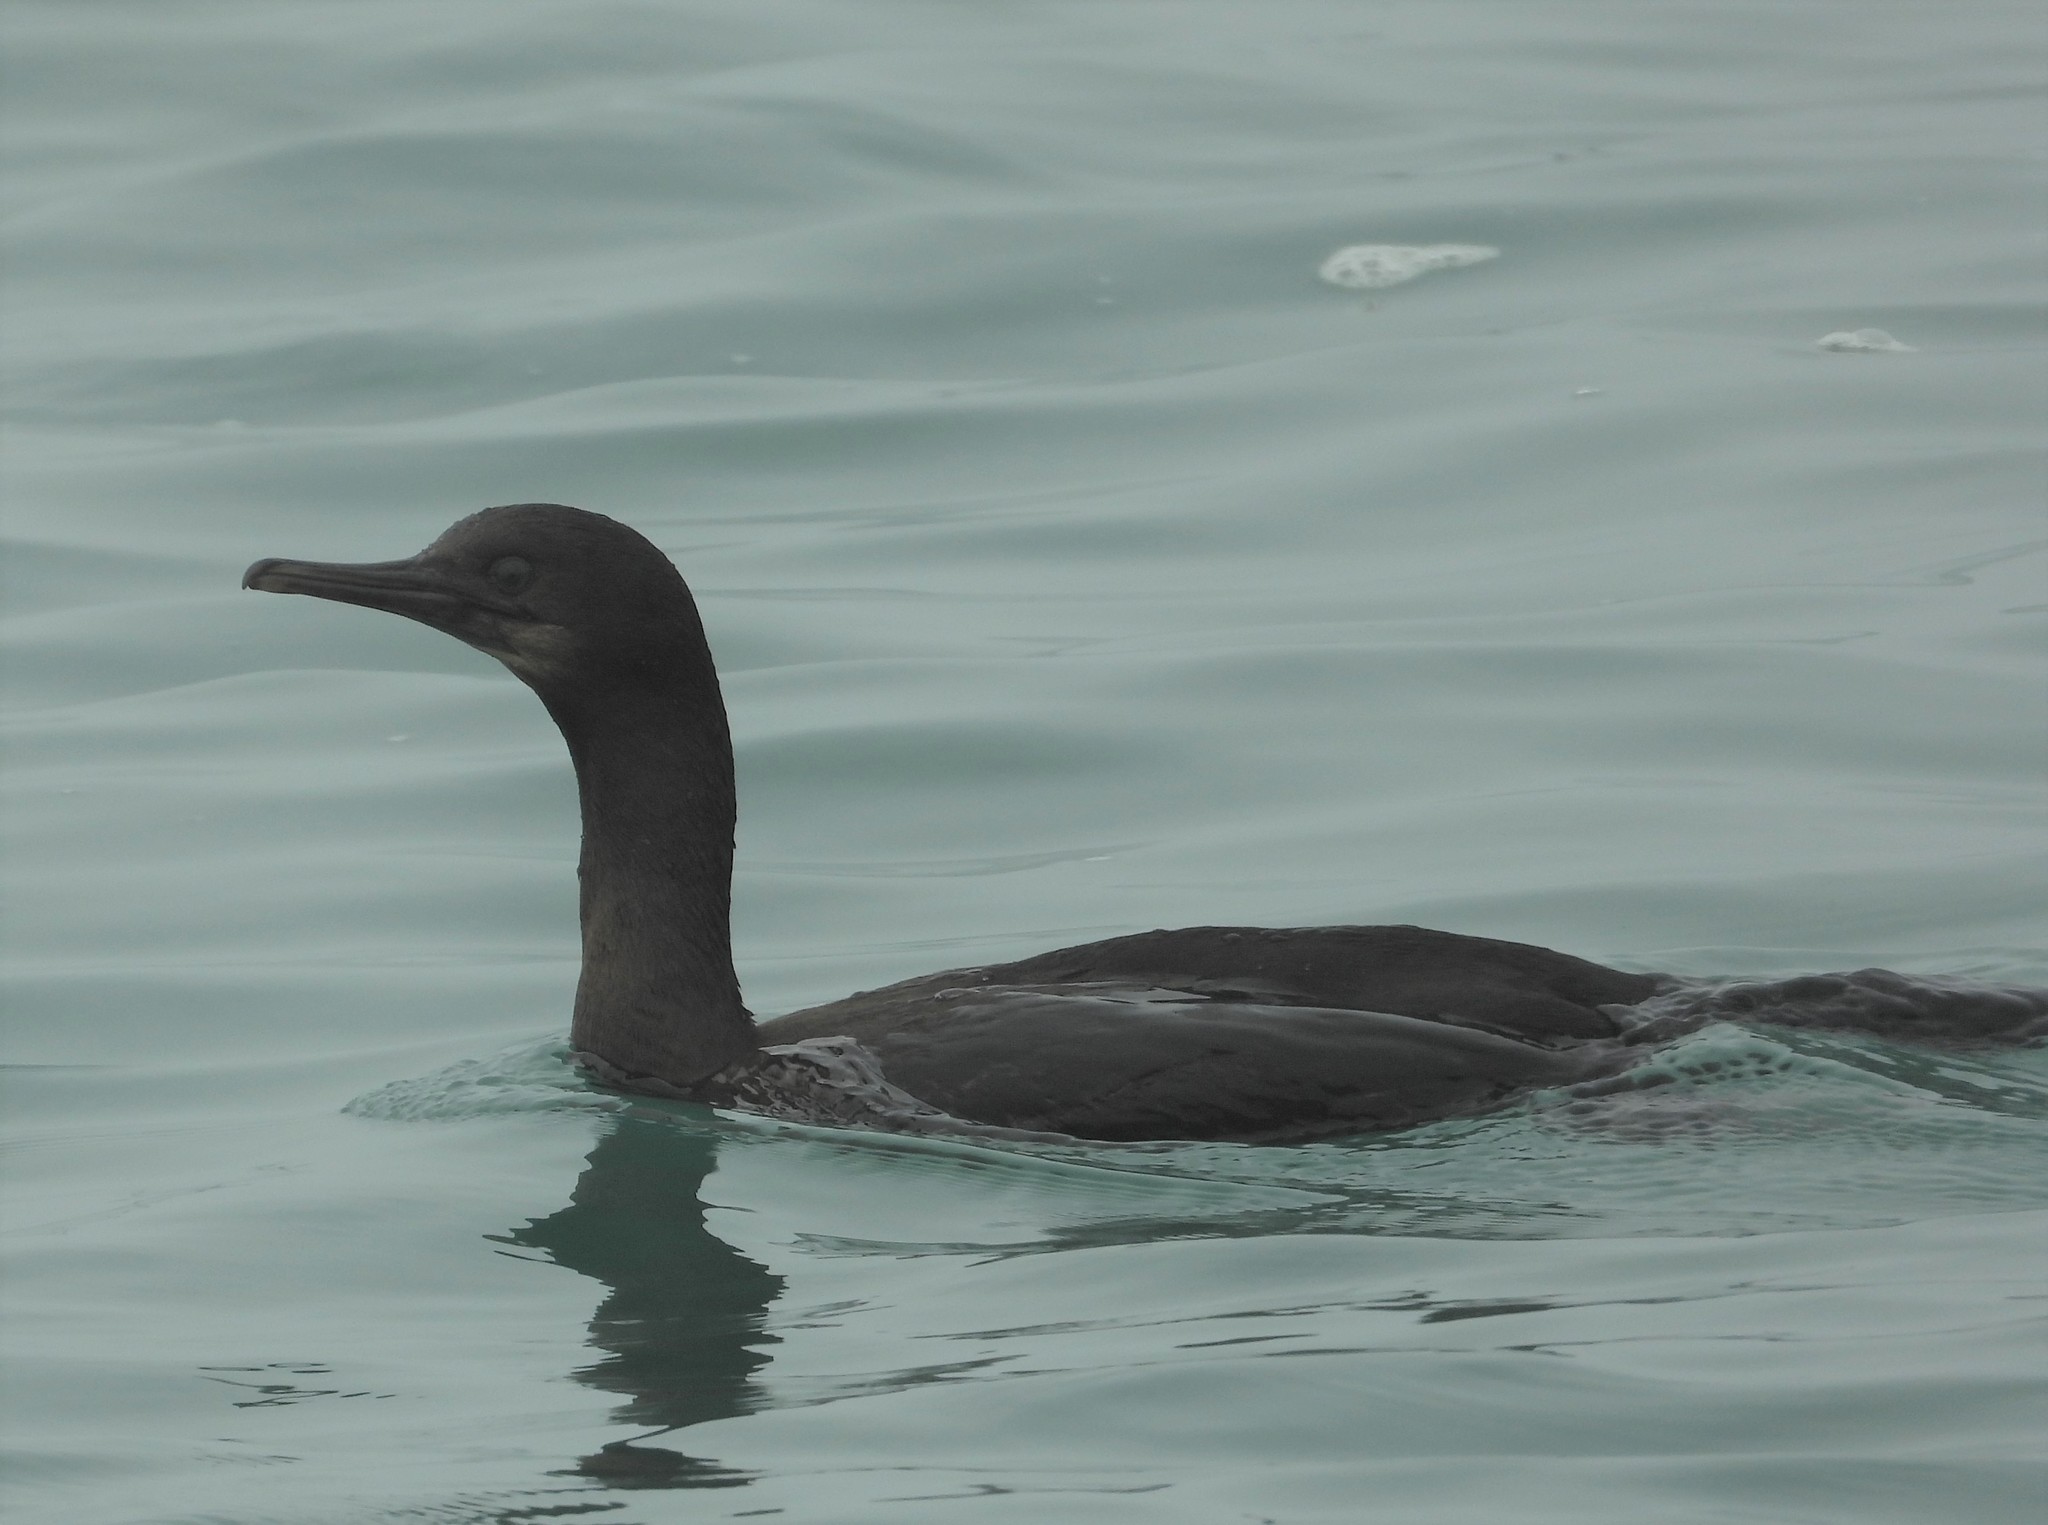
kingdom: Animalia
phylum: Chordata
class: Aves
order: Suliformes
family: Phalacrocoracidae
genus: Urile
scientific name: Urile penicillatus
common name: Brandt's cormorant
